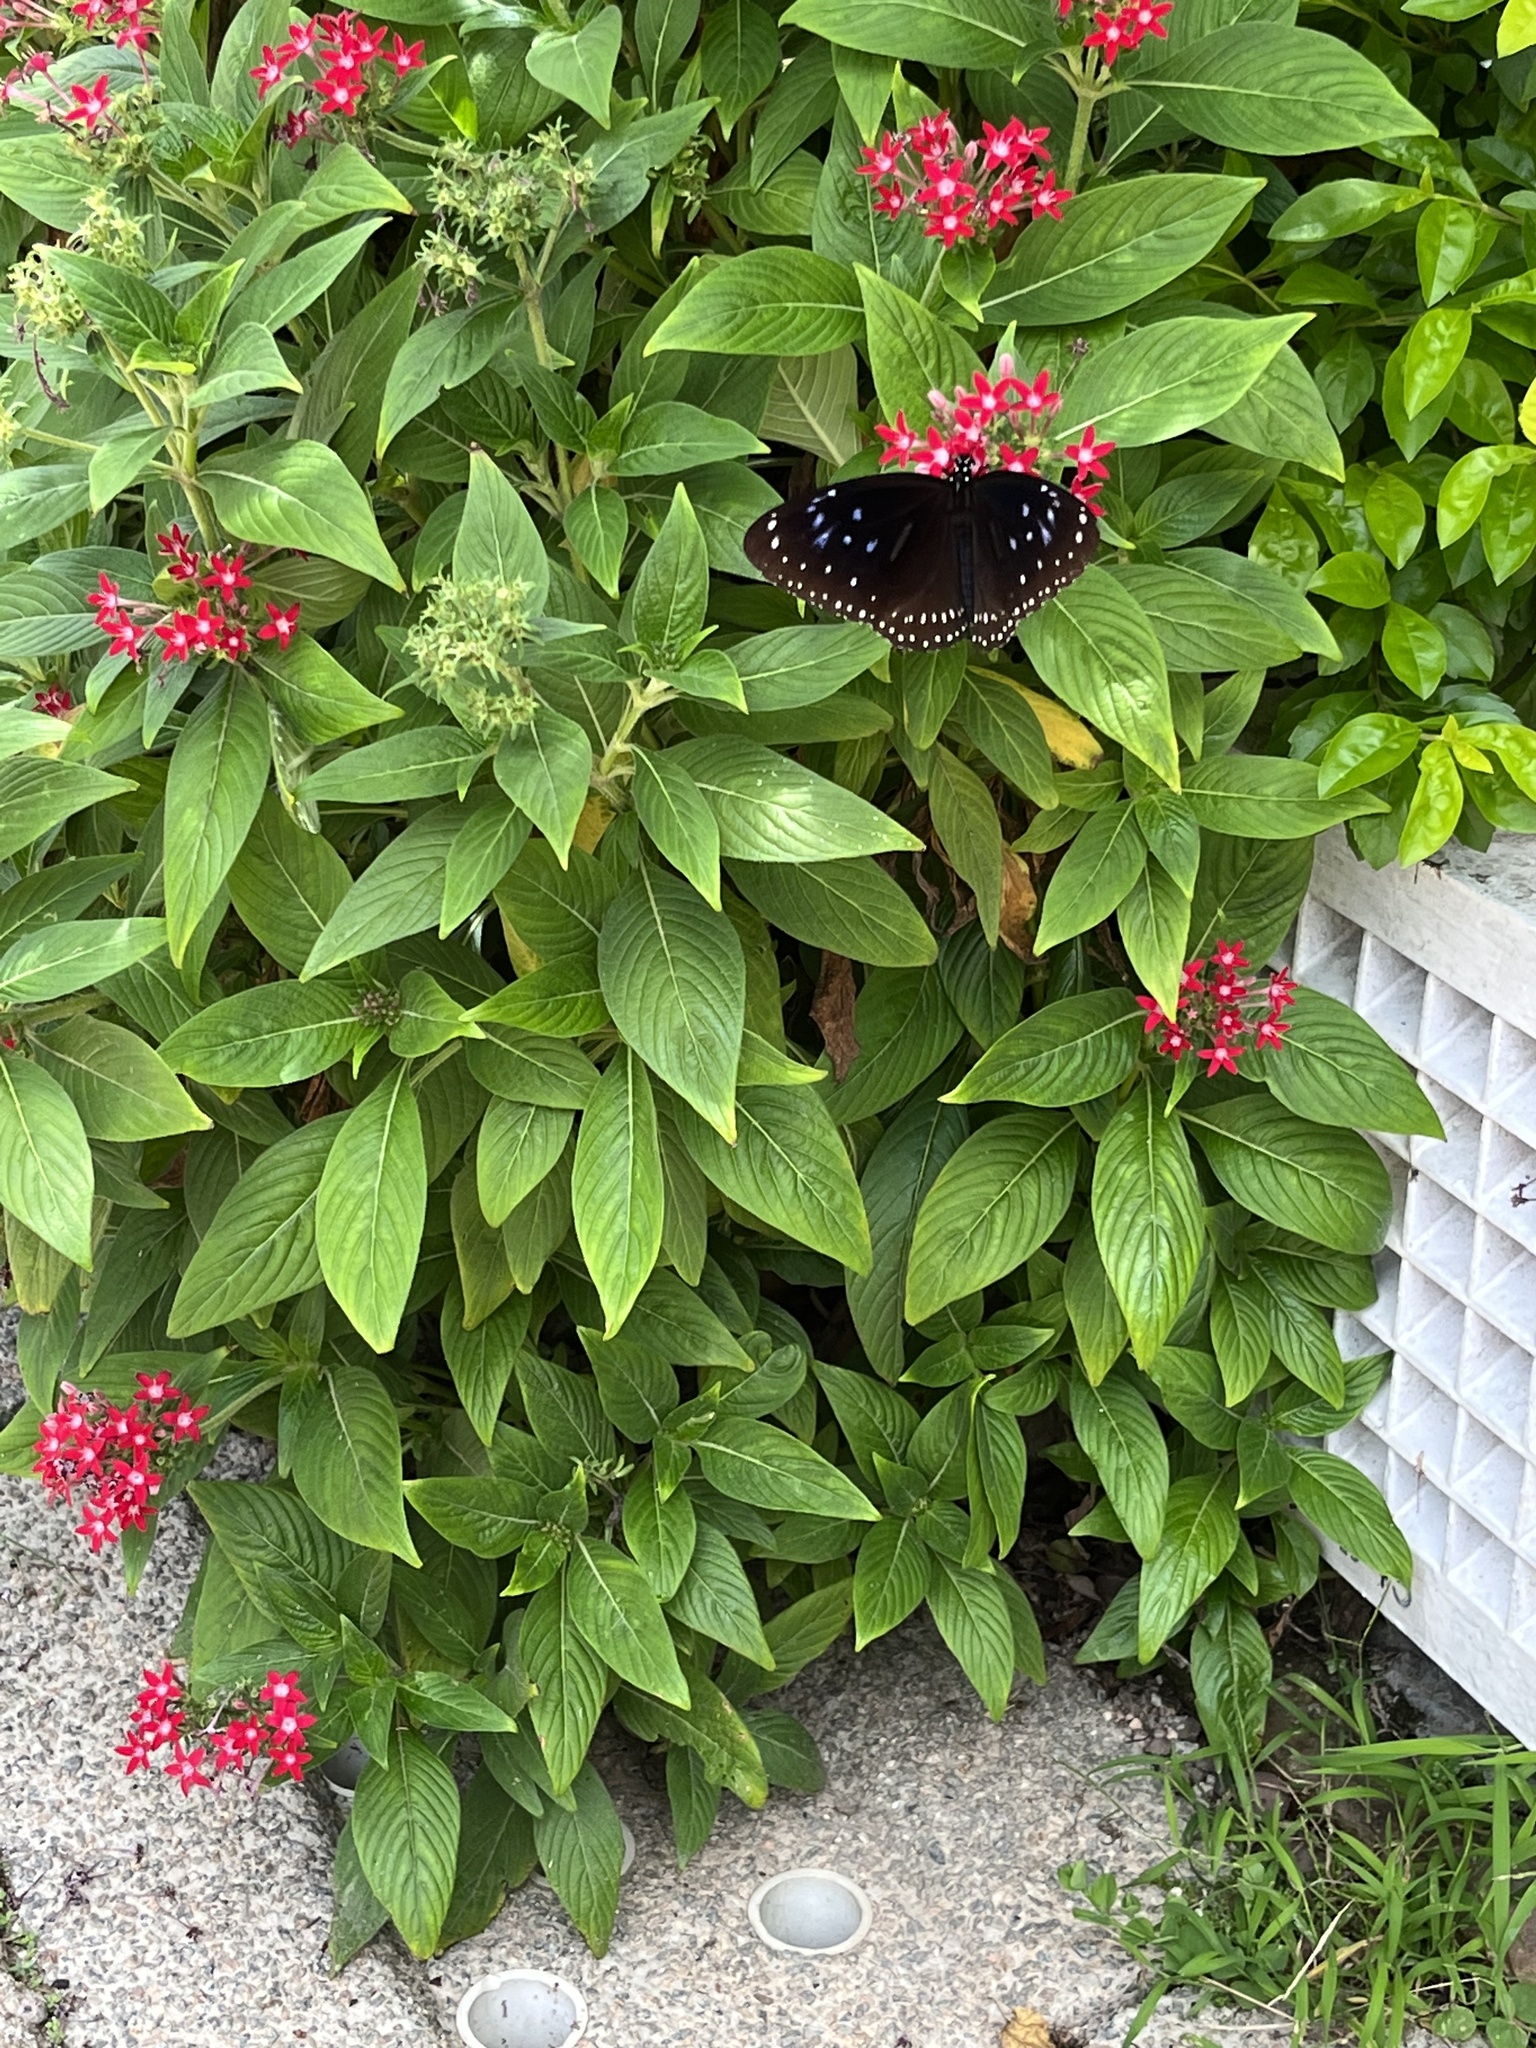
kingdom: Animalia
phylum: Arthropoda
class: Insecta
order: Lepidoptera
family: Nymphalidae
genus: Euploea
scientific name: Euploea midamus
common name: Blue-spotted crow butterfly
